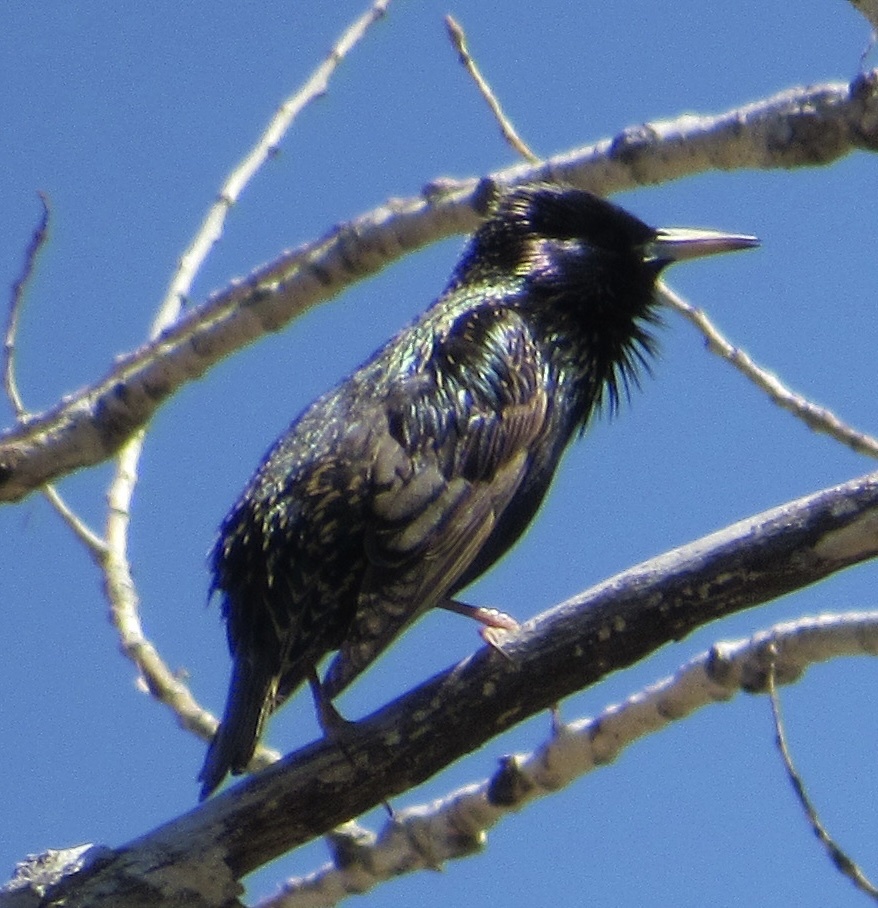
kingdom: Animalia
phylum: Chordata
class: Aves
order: Passeriformes
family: Sturnidae
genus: Sturnus
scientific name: Sturnus vulgaris
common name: Common starling
